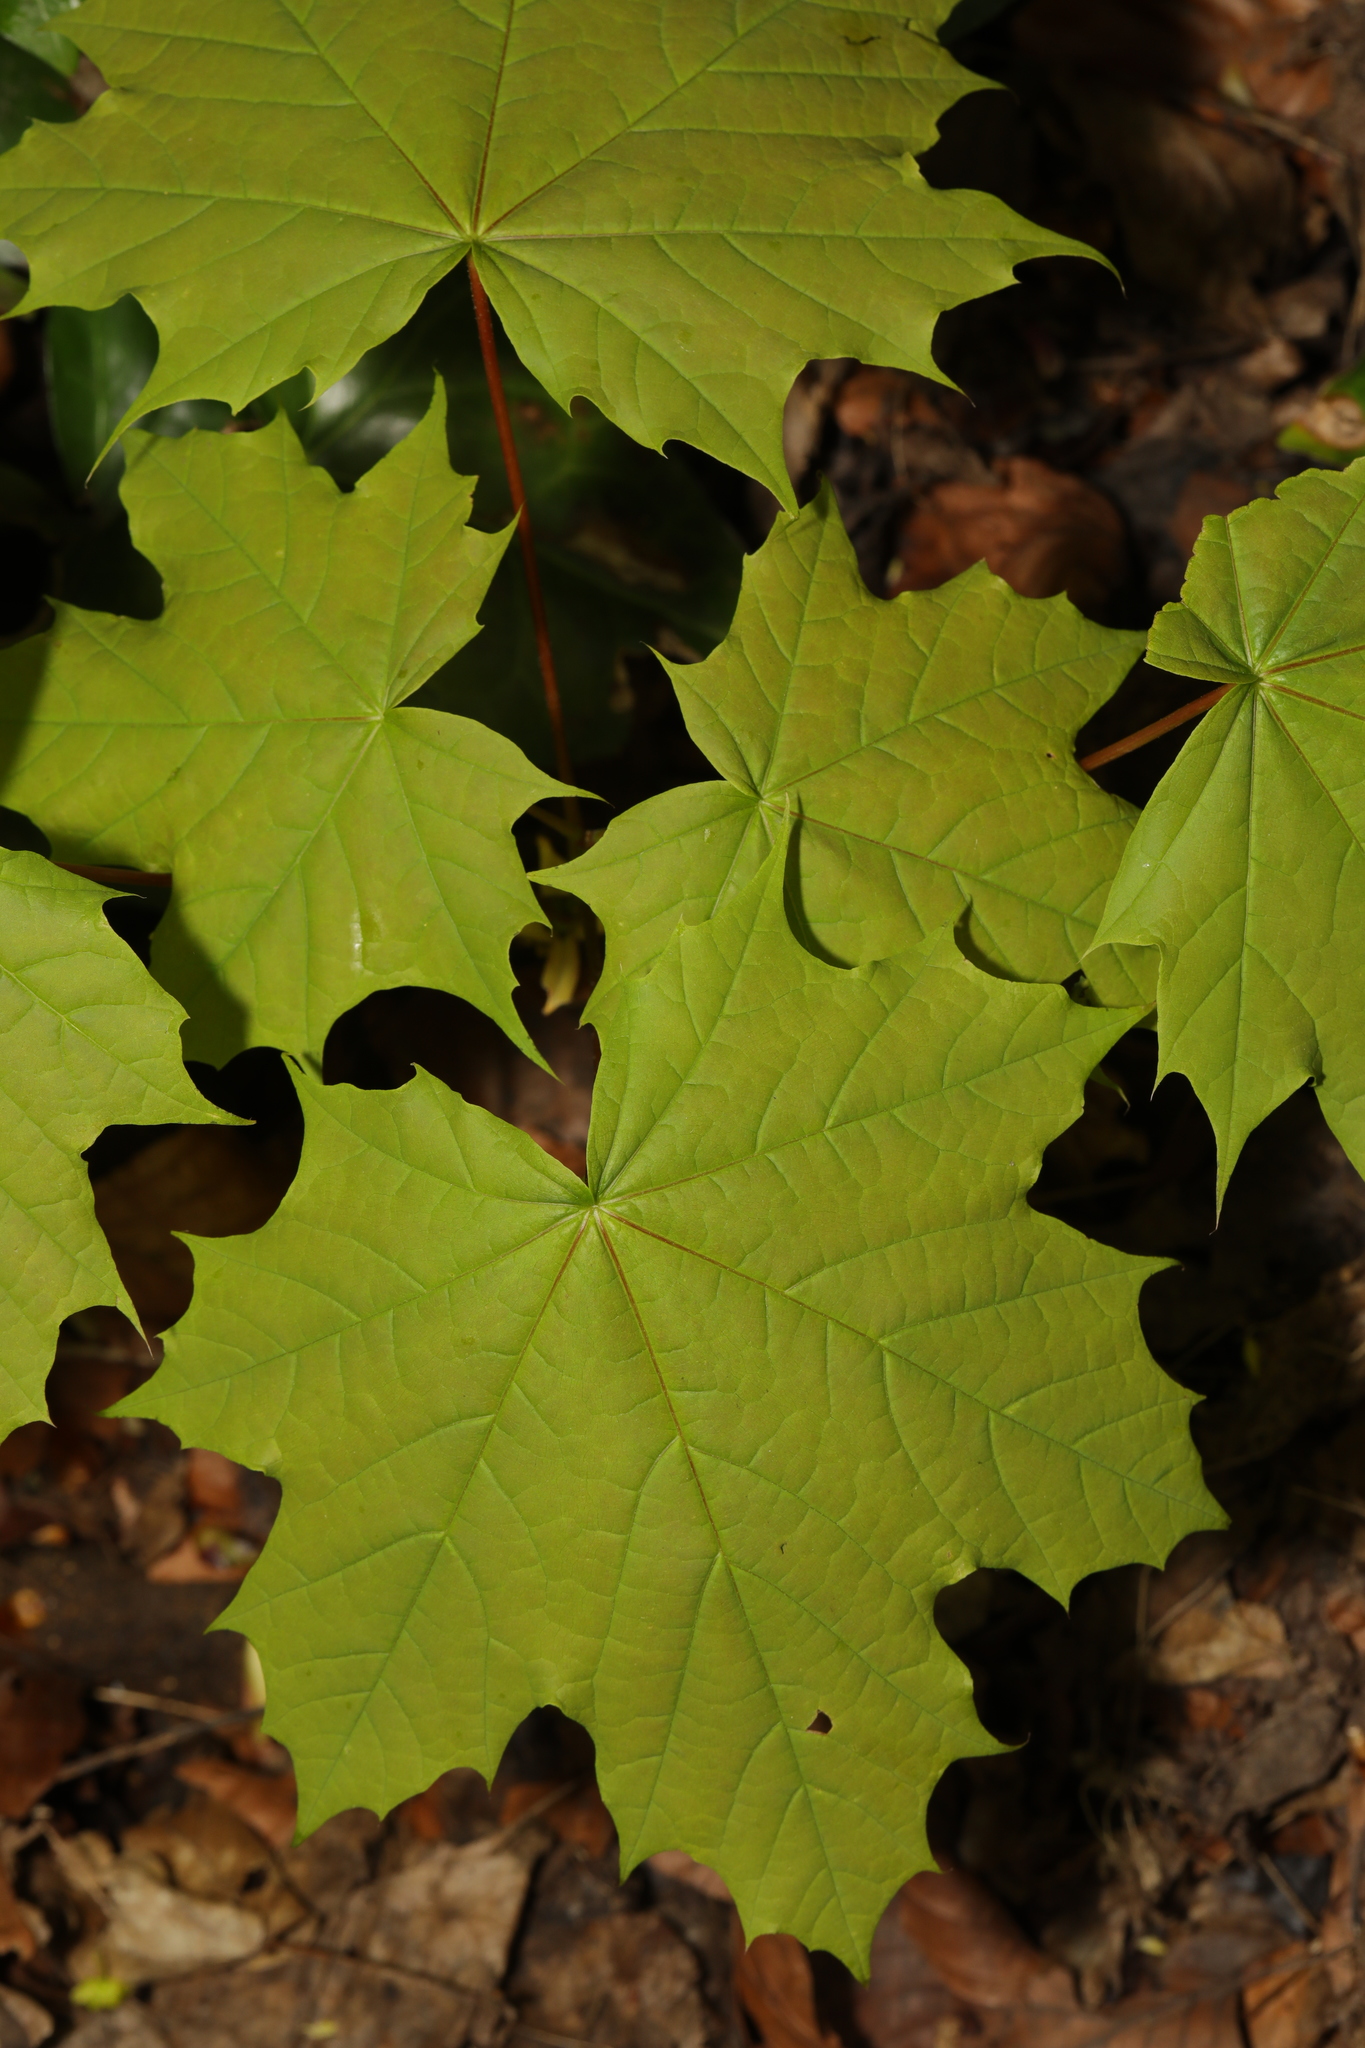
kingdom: Plantae
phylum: Tracheophyta
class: Magnoliopsida
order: Sapindales
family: Sapindaceae
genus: Acer
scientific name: Acer platanoides
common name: Norway maple
